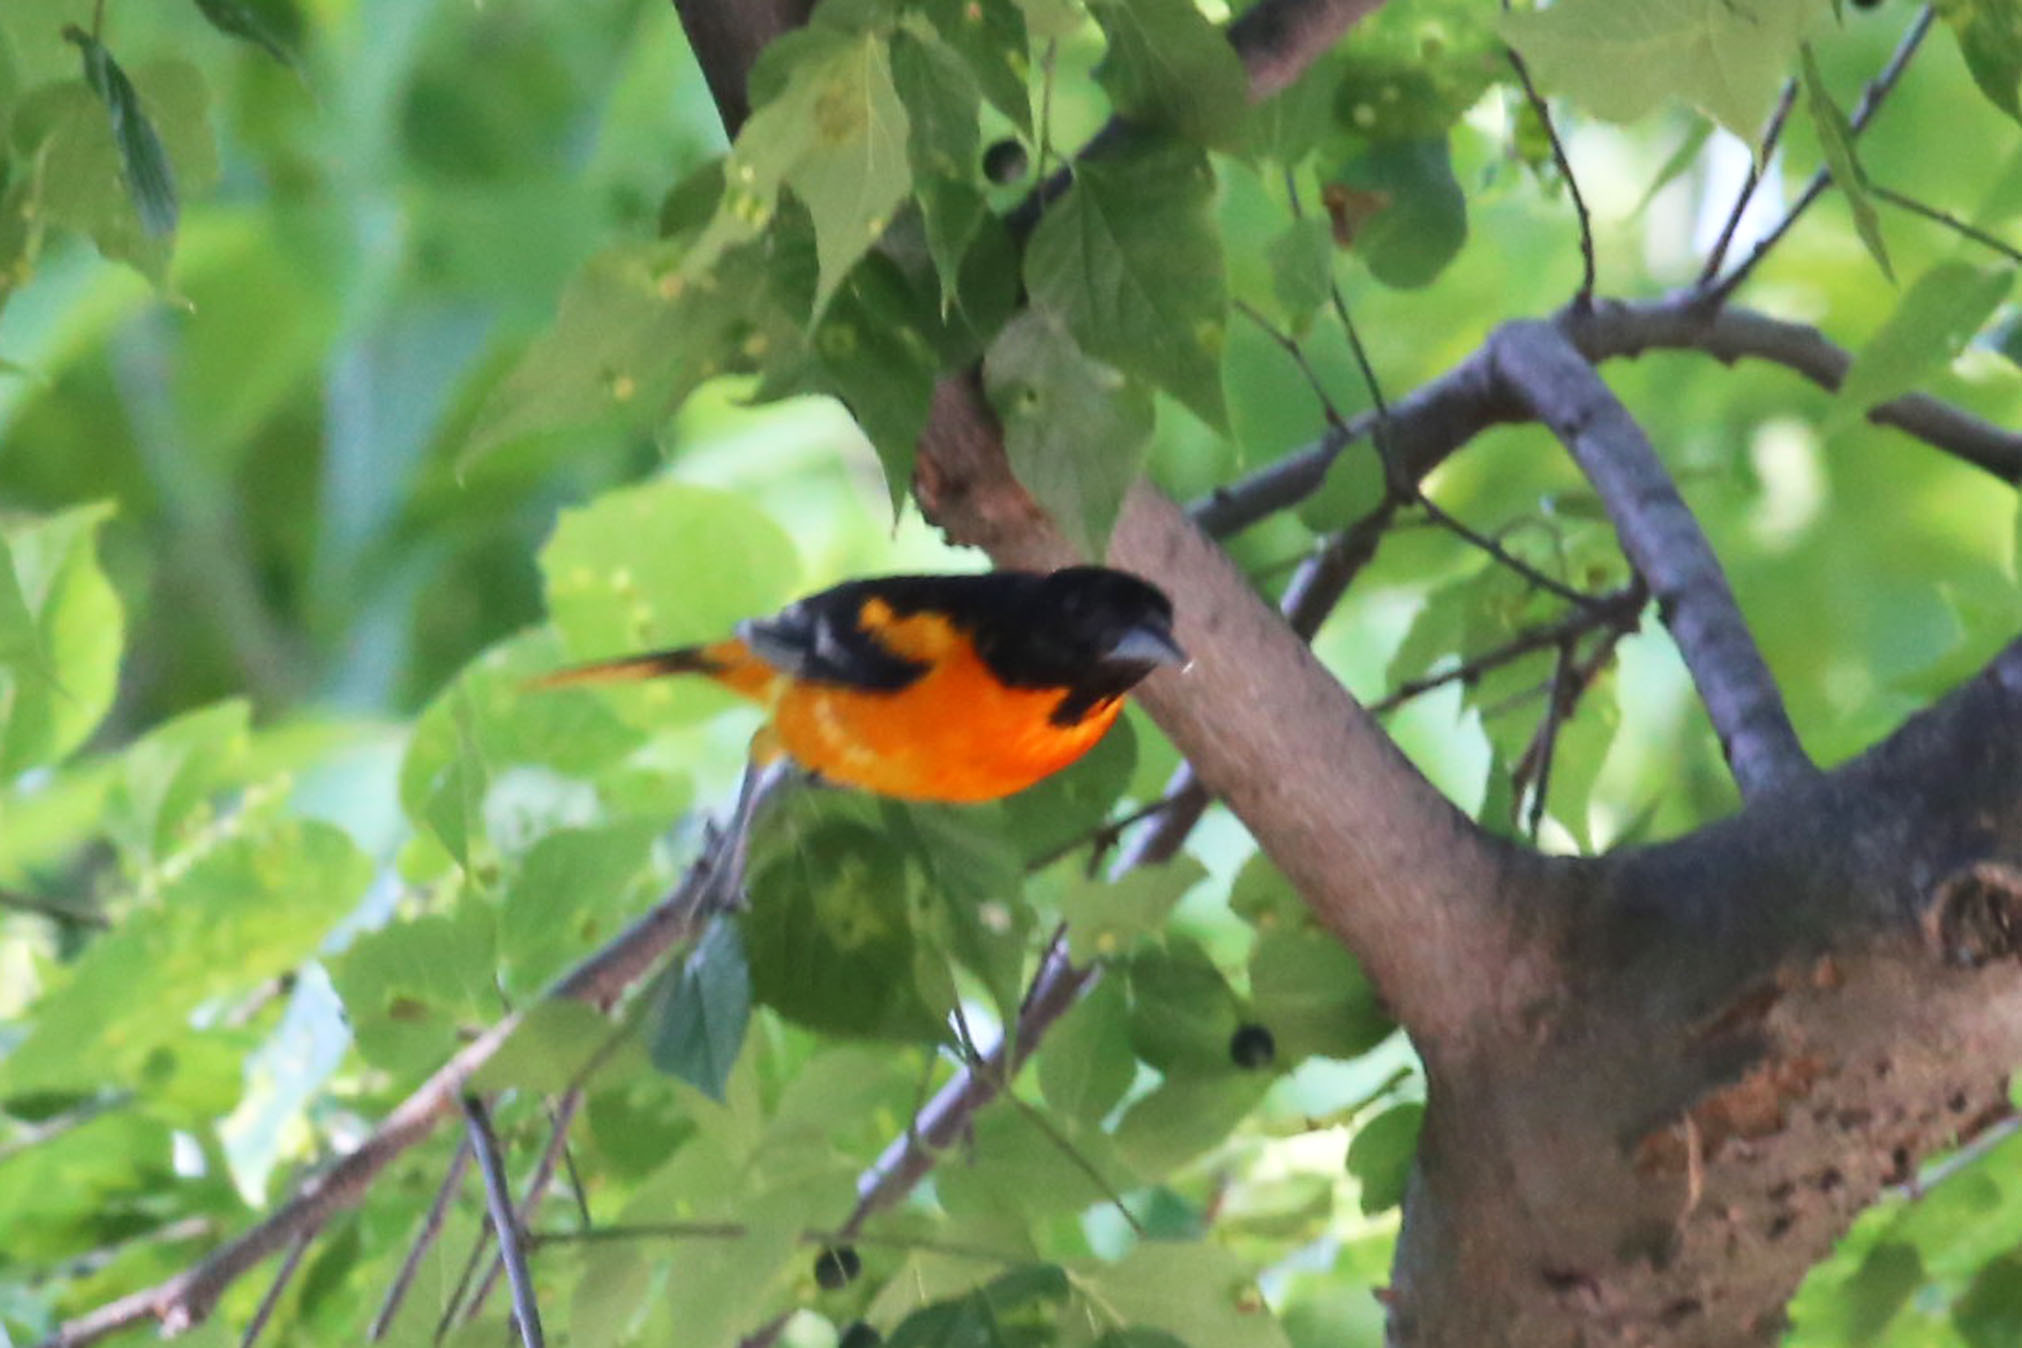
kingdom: Animalia
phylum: Chordata
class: Aves
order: Passeriformes
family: Icteridae
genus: Icterus
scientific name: Icterus galbula
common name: Baltimore oriole
